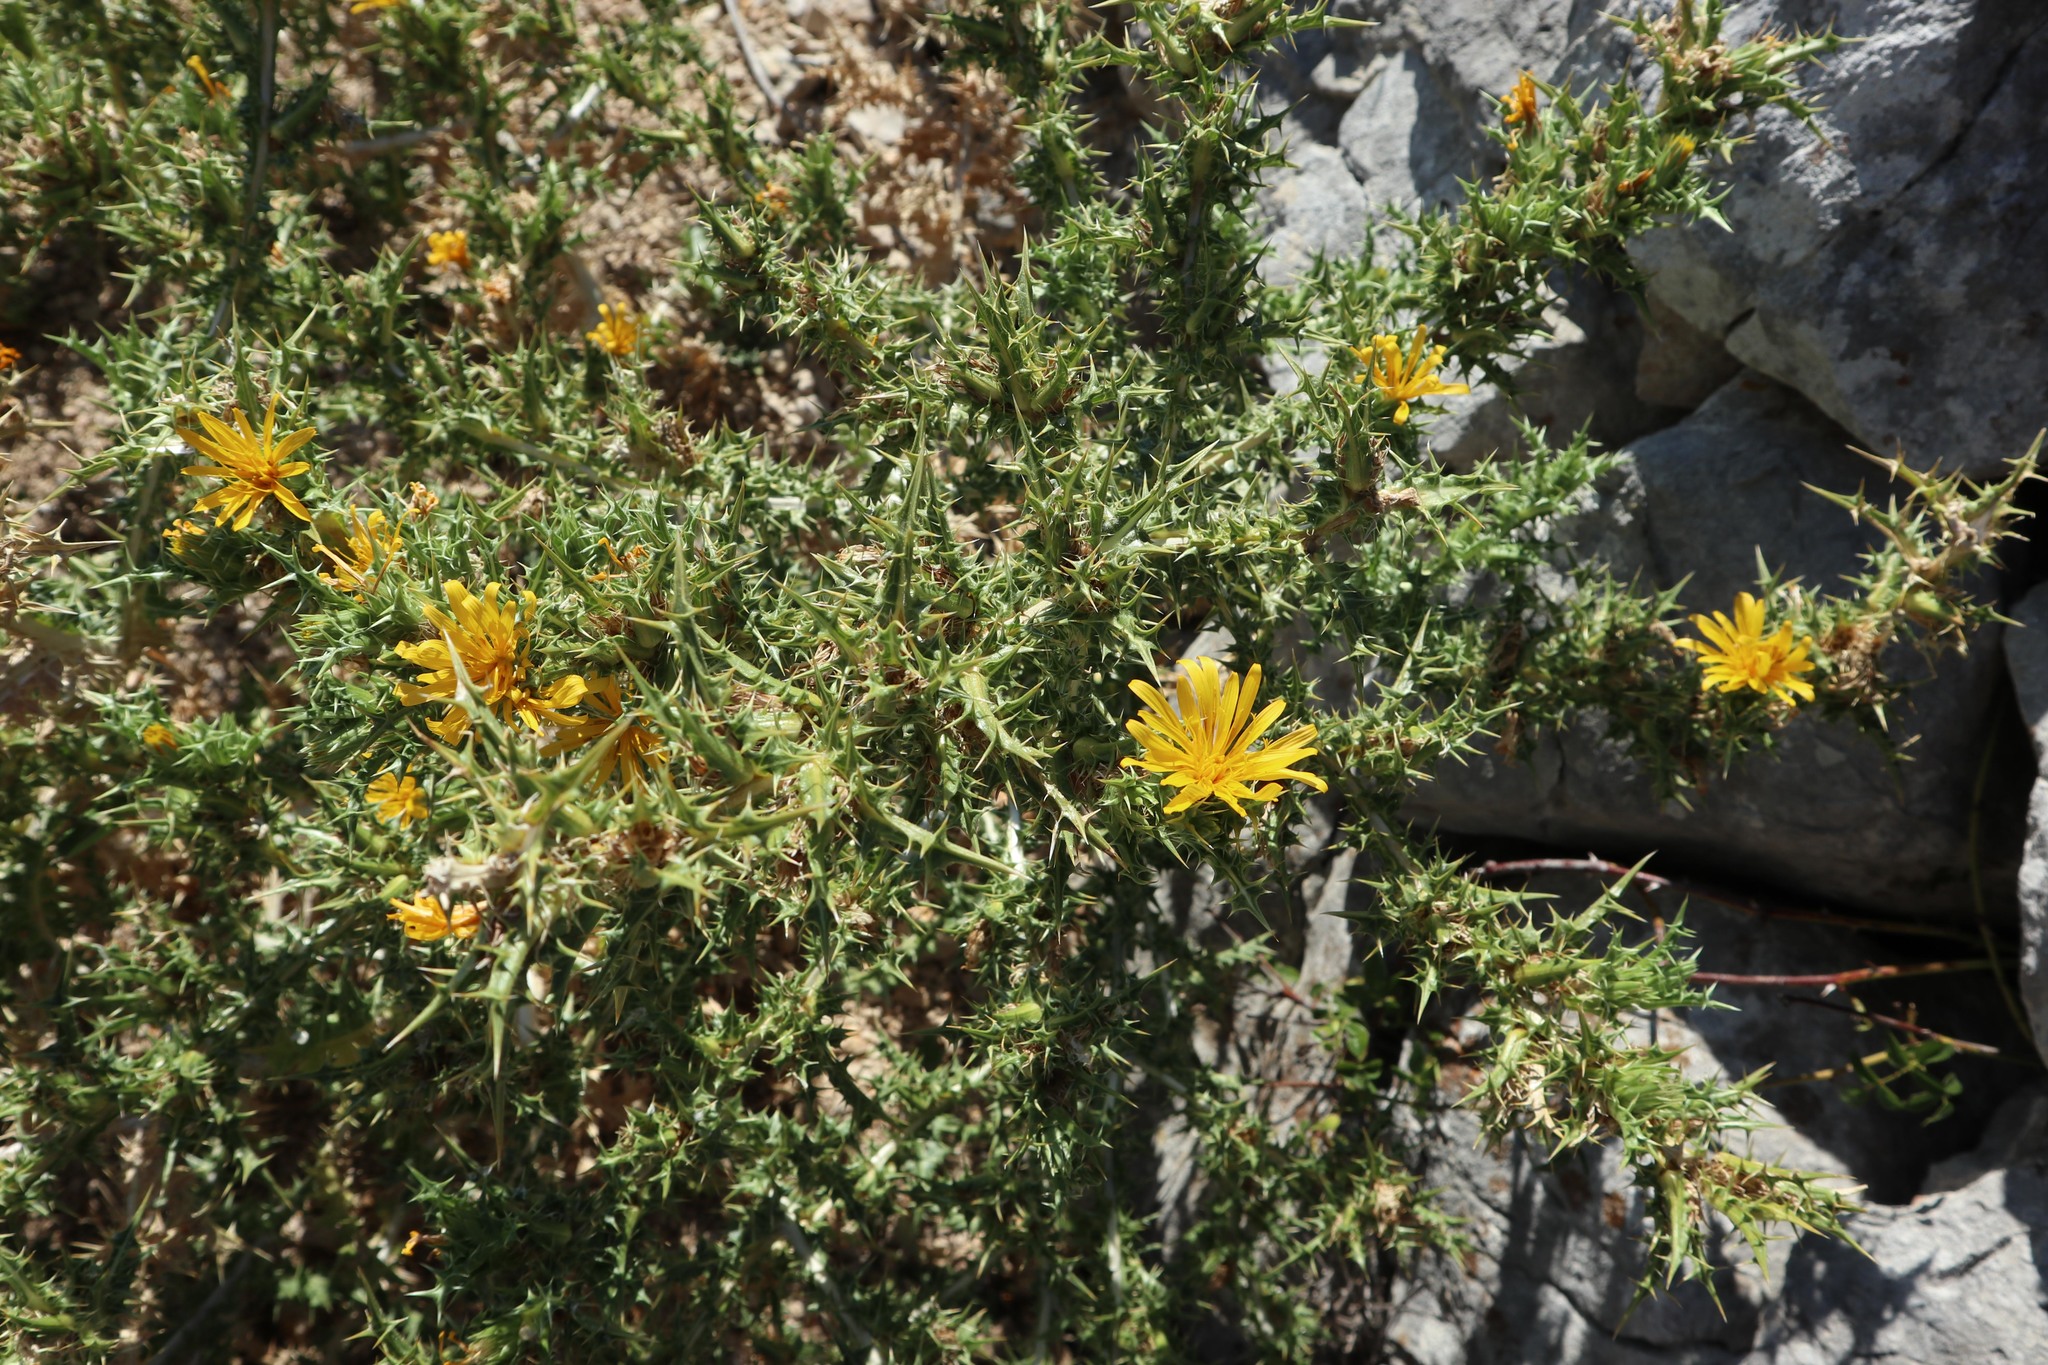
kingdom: Plantae
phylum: Tracheophyta
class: Magnoliopsida
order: Asterales
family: Asteraceae
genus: Scolymus
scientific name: Scolymus hispanicus
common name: Golden thistle
